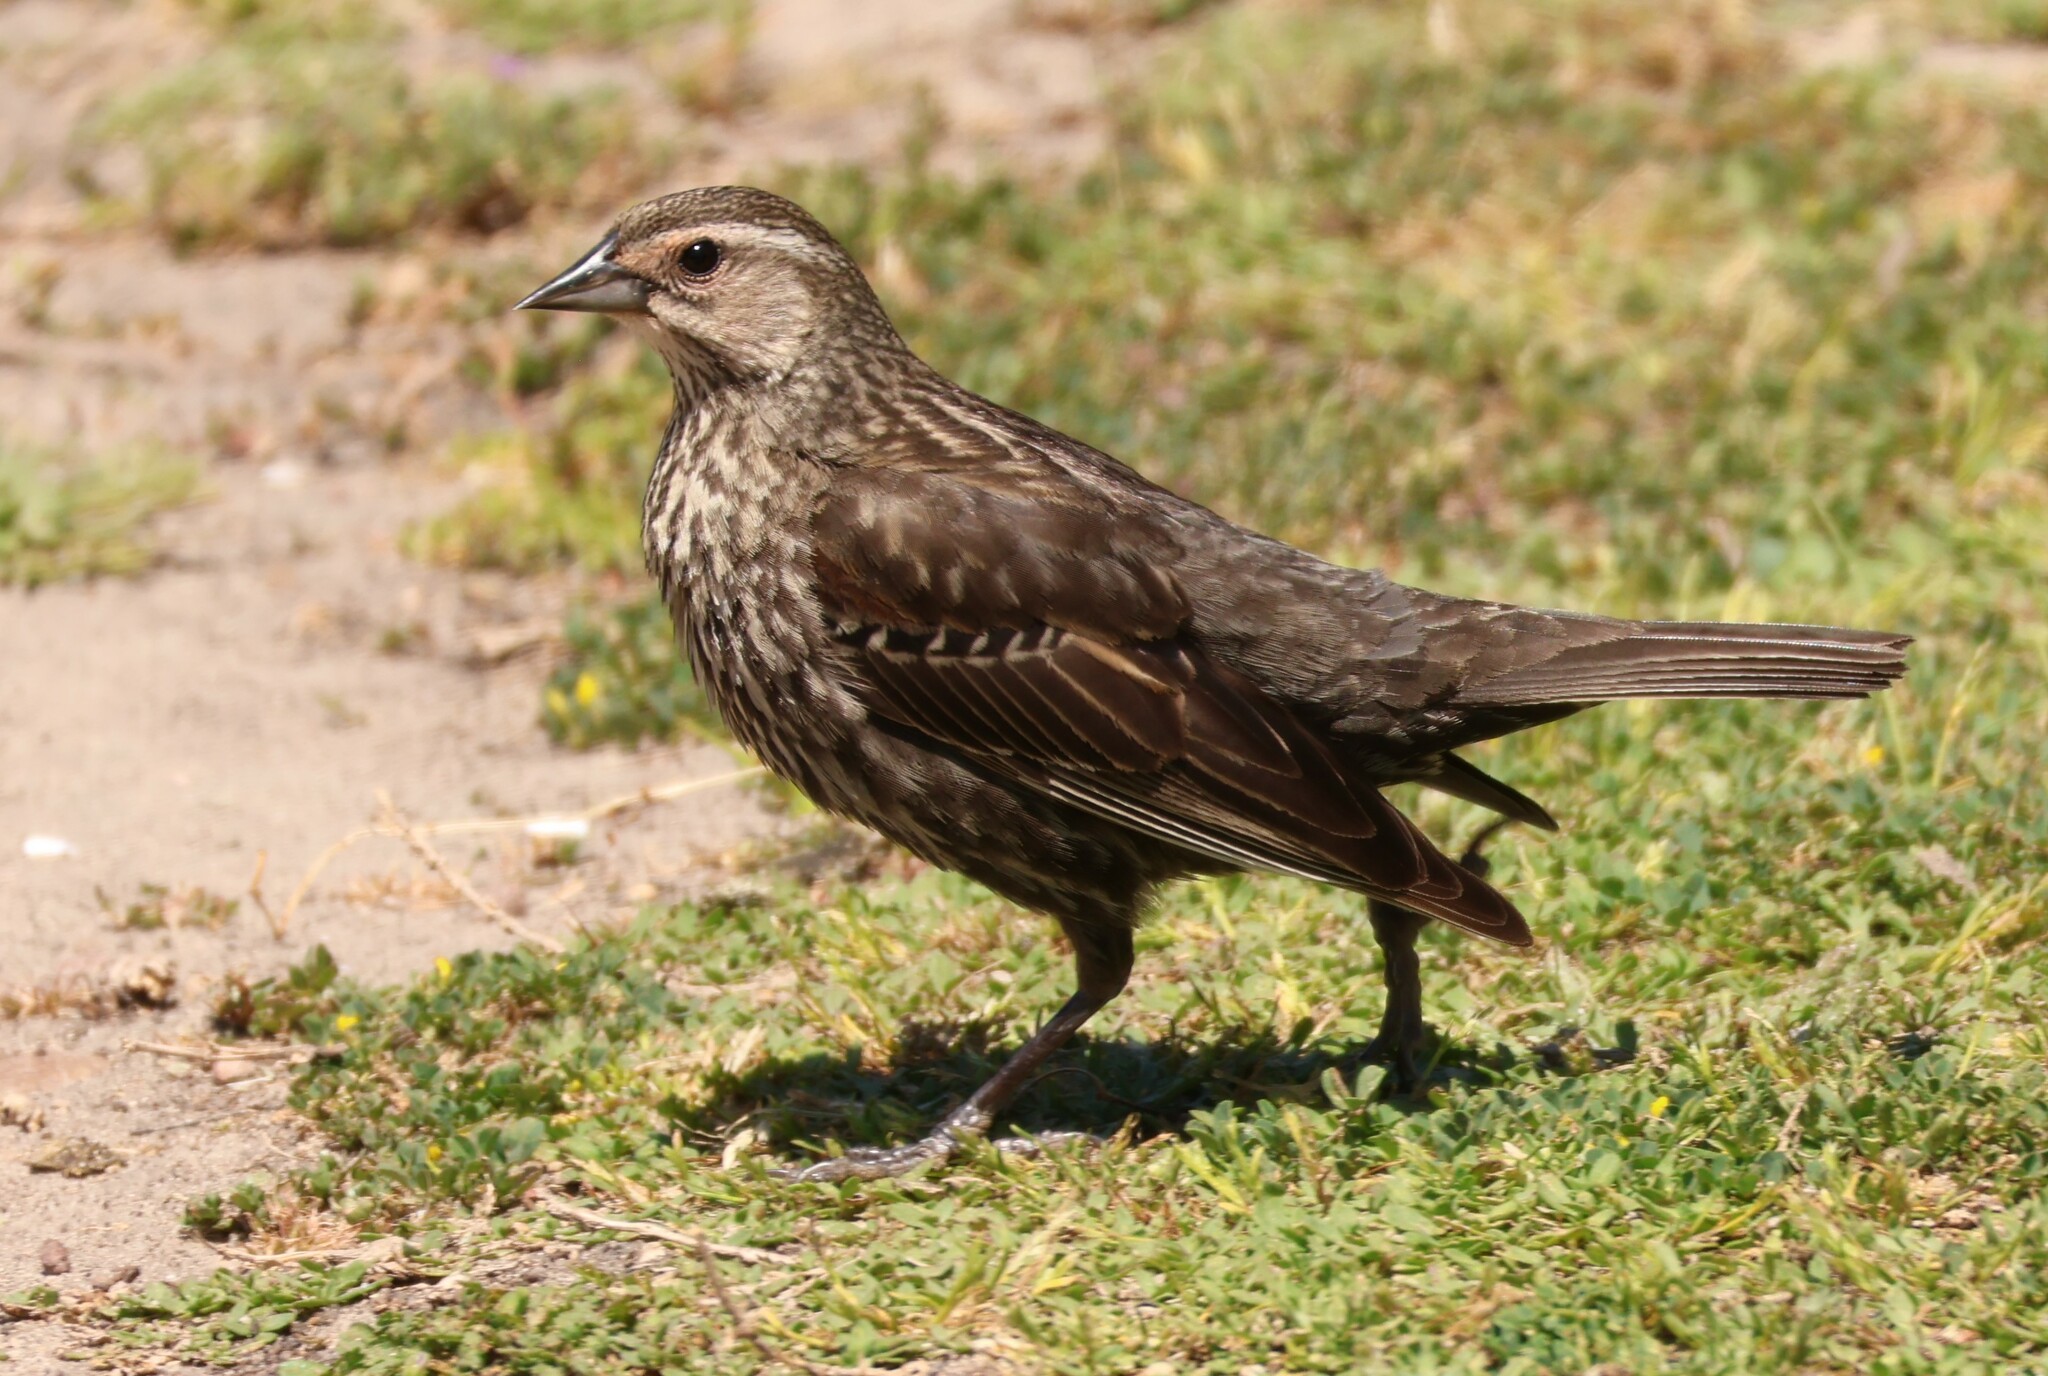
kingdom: Animalia
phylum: Chordata
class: Aves
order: Passeriformes
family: Icteridae
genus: Agelaius
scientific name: Agelaius phoeniceus
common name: Red-winged blackbird
